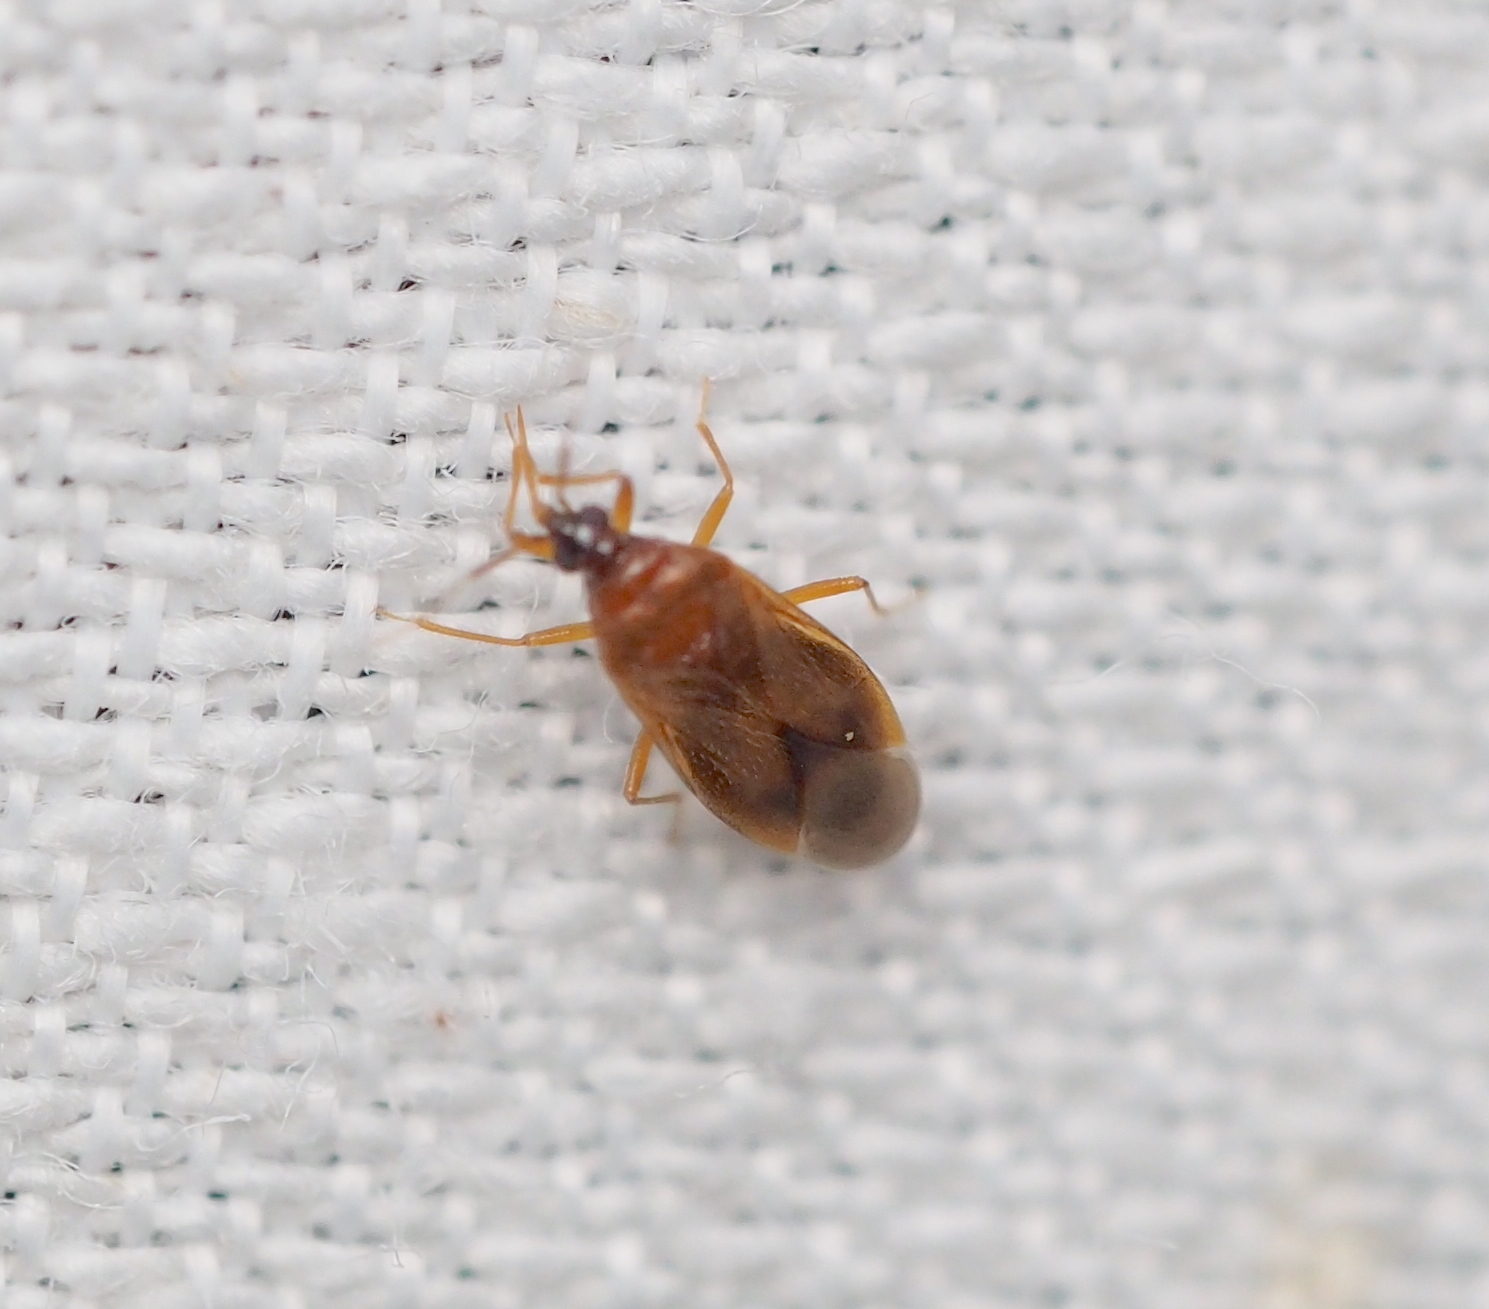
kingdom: Animalia
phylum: Arthropoda
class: Insecta
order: Hemiptera
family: Anthocoridae
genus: Amphiareus
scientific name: Amphiareus obscuriceps
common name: Minute pirate bug
